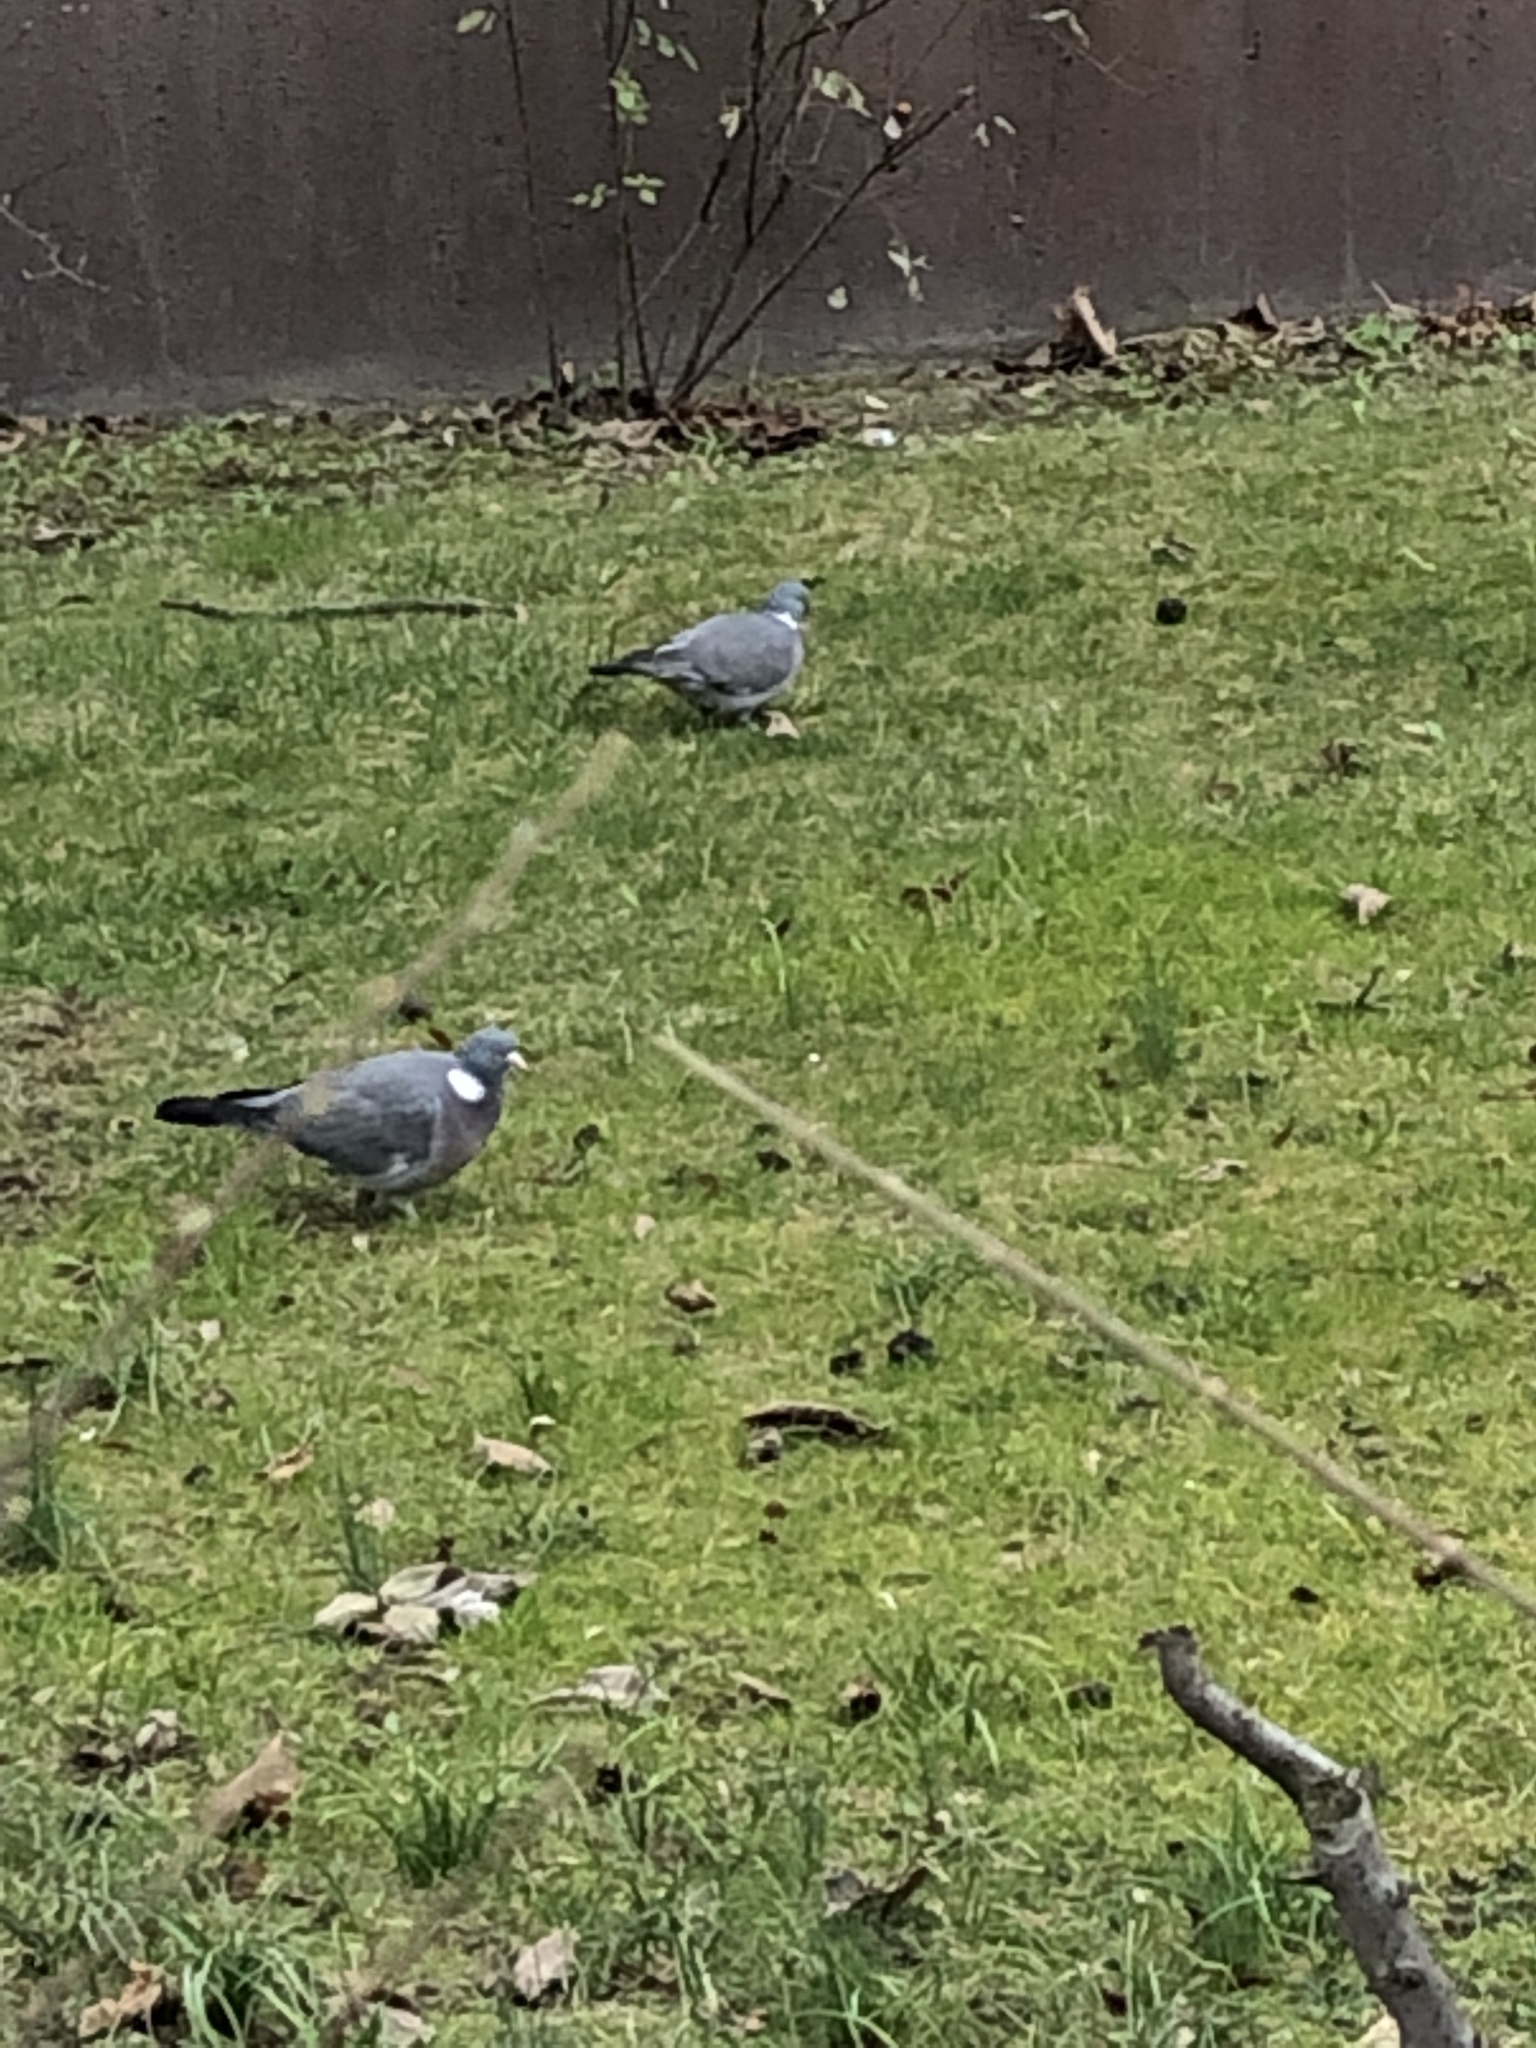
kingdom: Animalia
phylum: Chordata
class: Aves
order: Columbiformes
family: Columbidae
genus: Columba
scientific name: Columba palumbus
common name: Common wood pigeon
